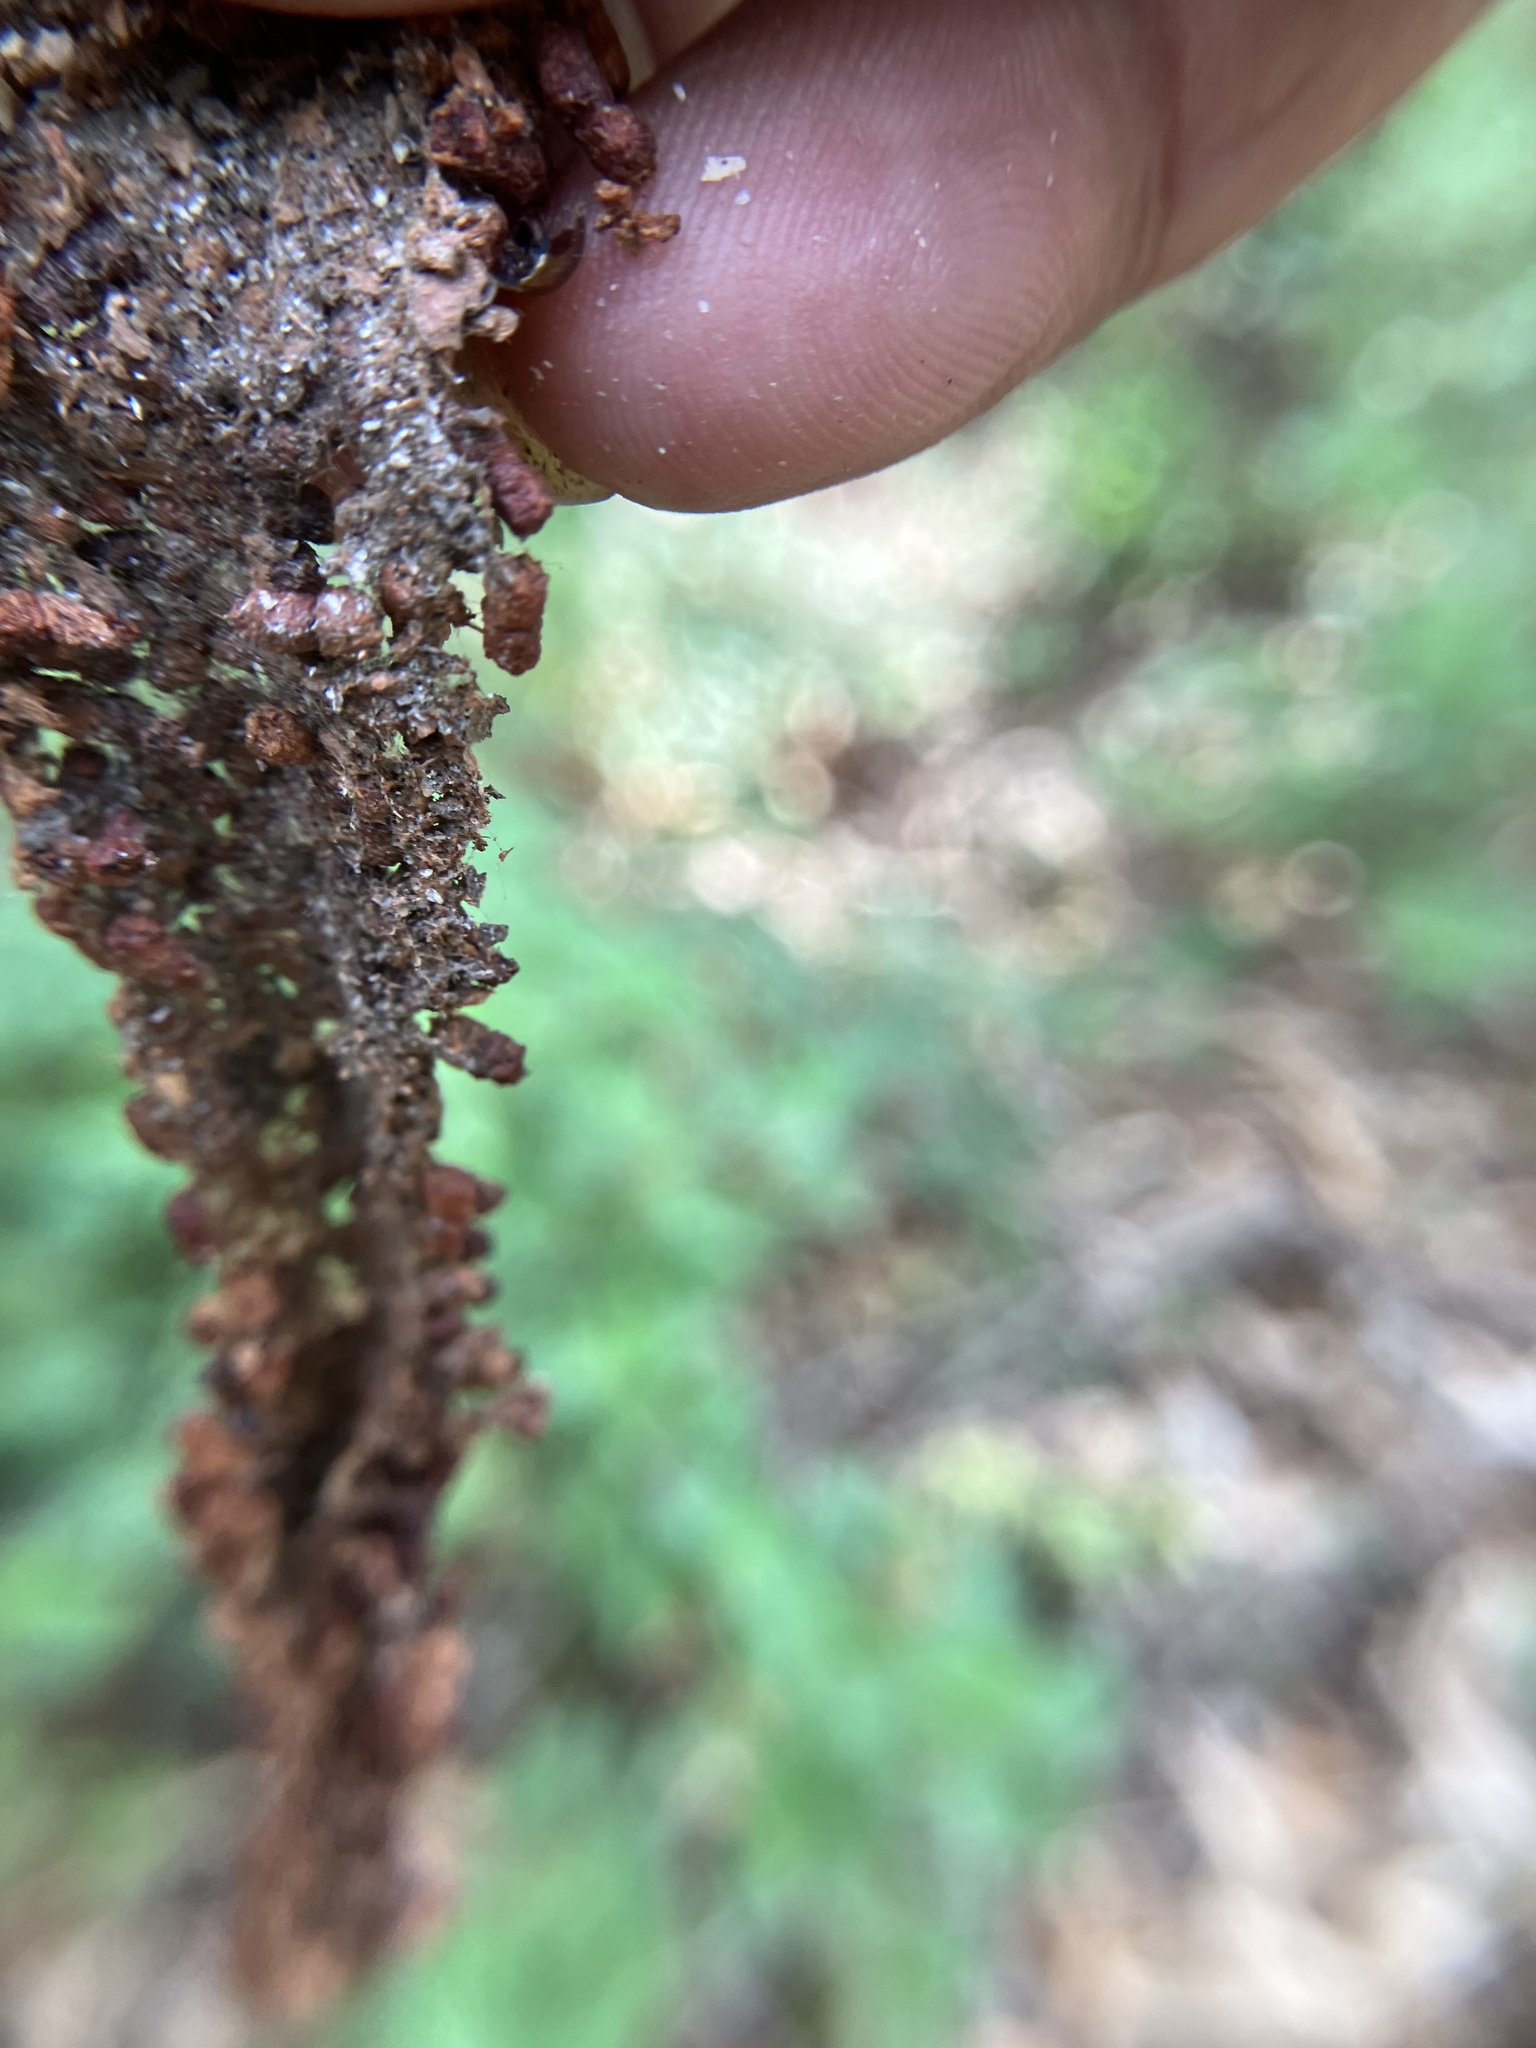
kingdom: Animalia
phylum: Arthropoda
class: Insecta
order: Lepidoptera
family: Metarbelidae
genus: Indarbela
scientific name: Indarbela quadrinotata
